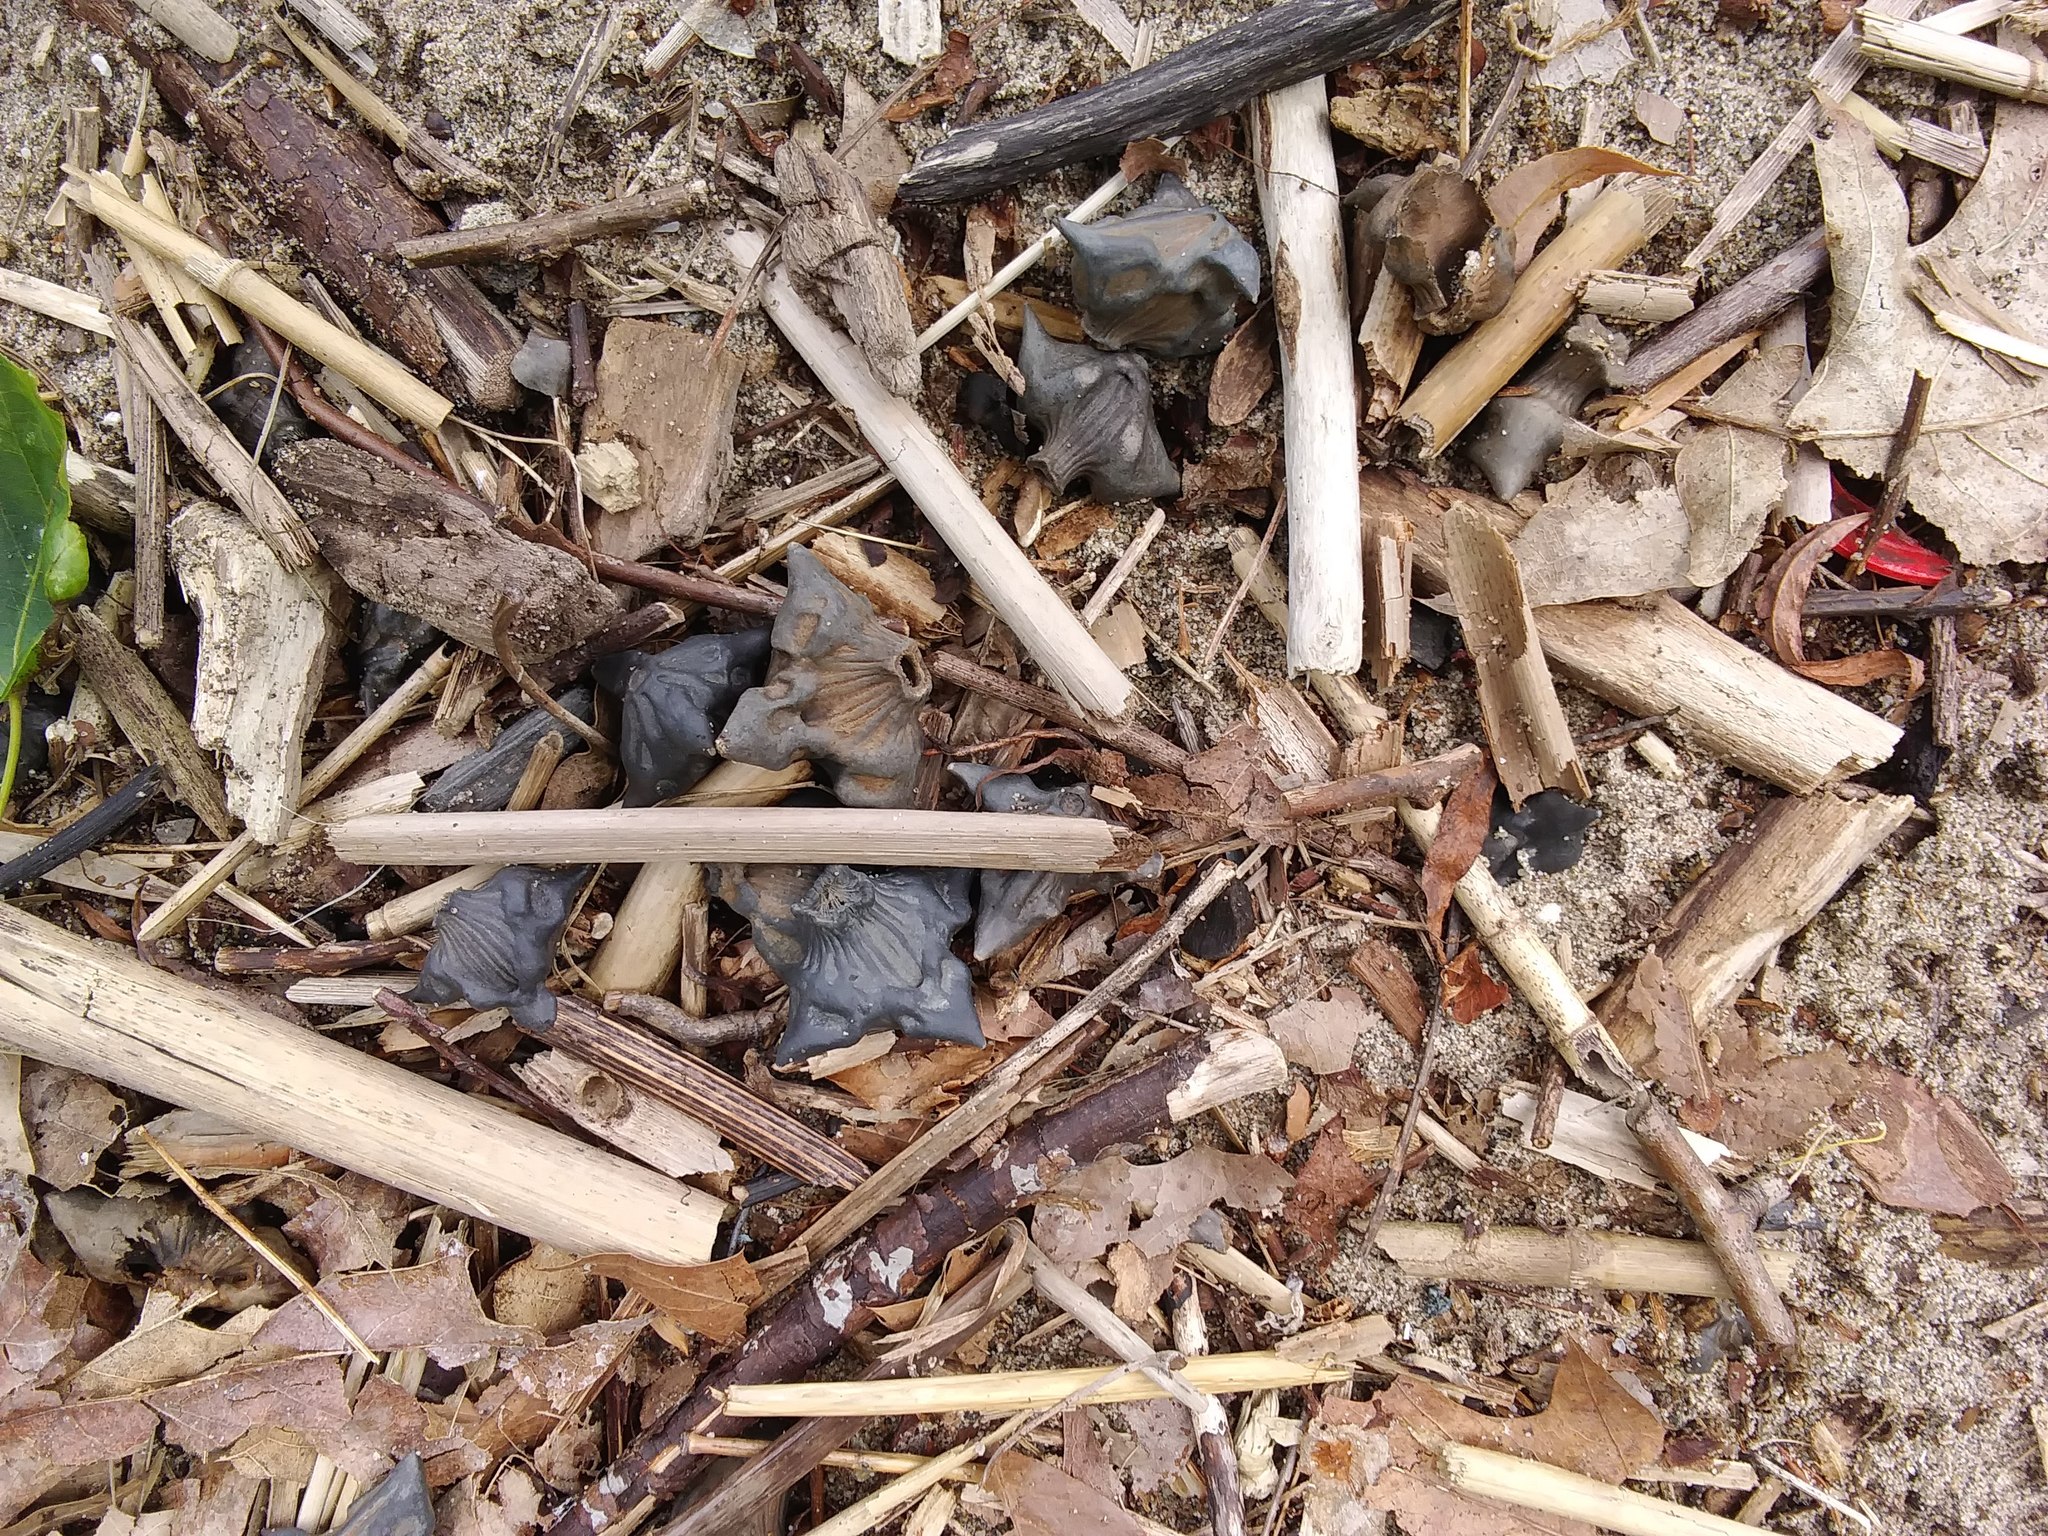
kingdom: Plantae
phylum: Tracheophyta
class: Magnoliopsida
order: Myrtales
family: Lythraceae
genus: Trapa
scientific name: Trapa natans
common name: Water chestnut
